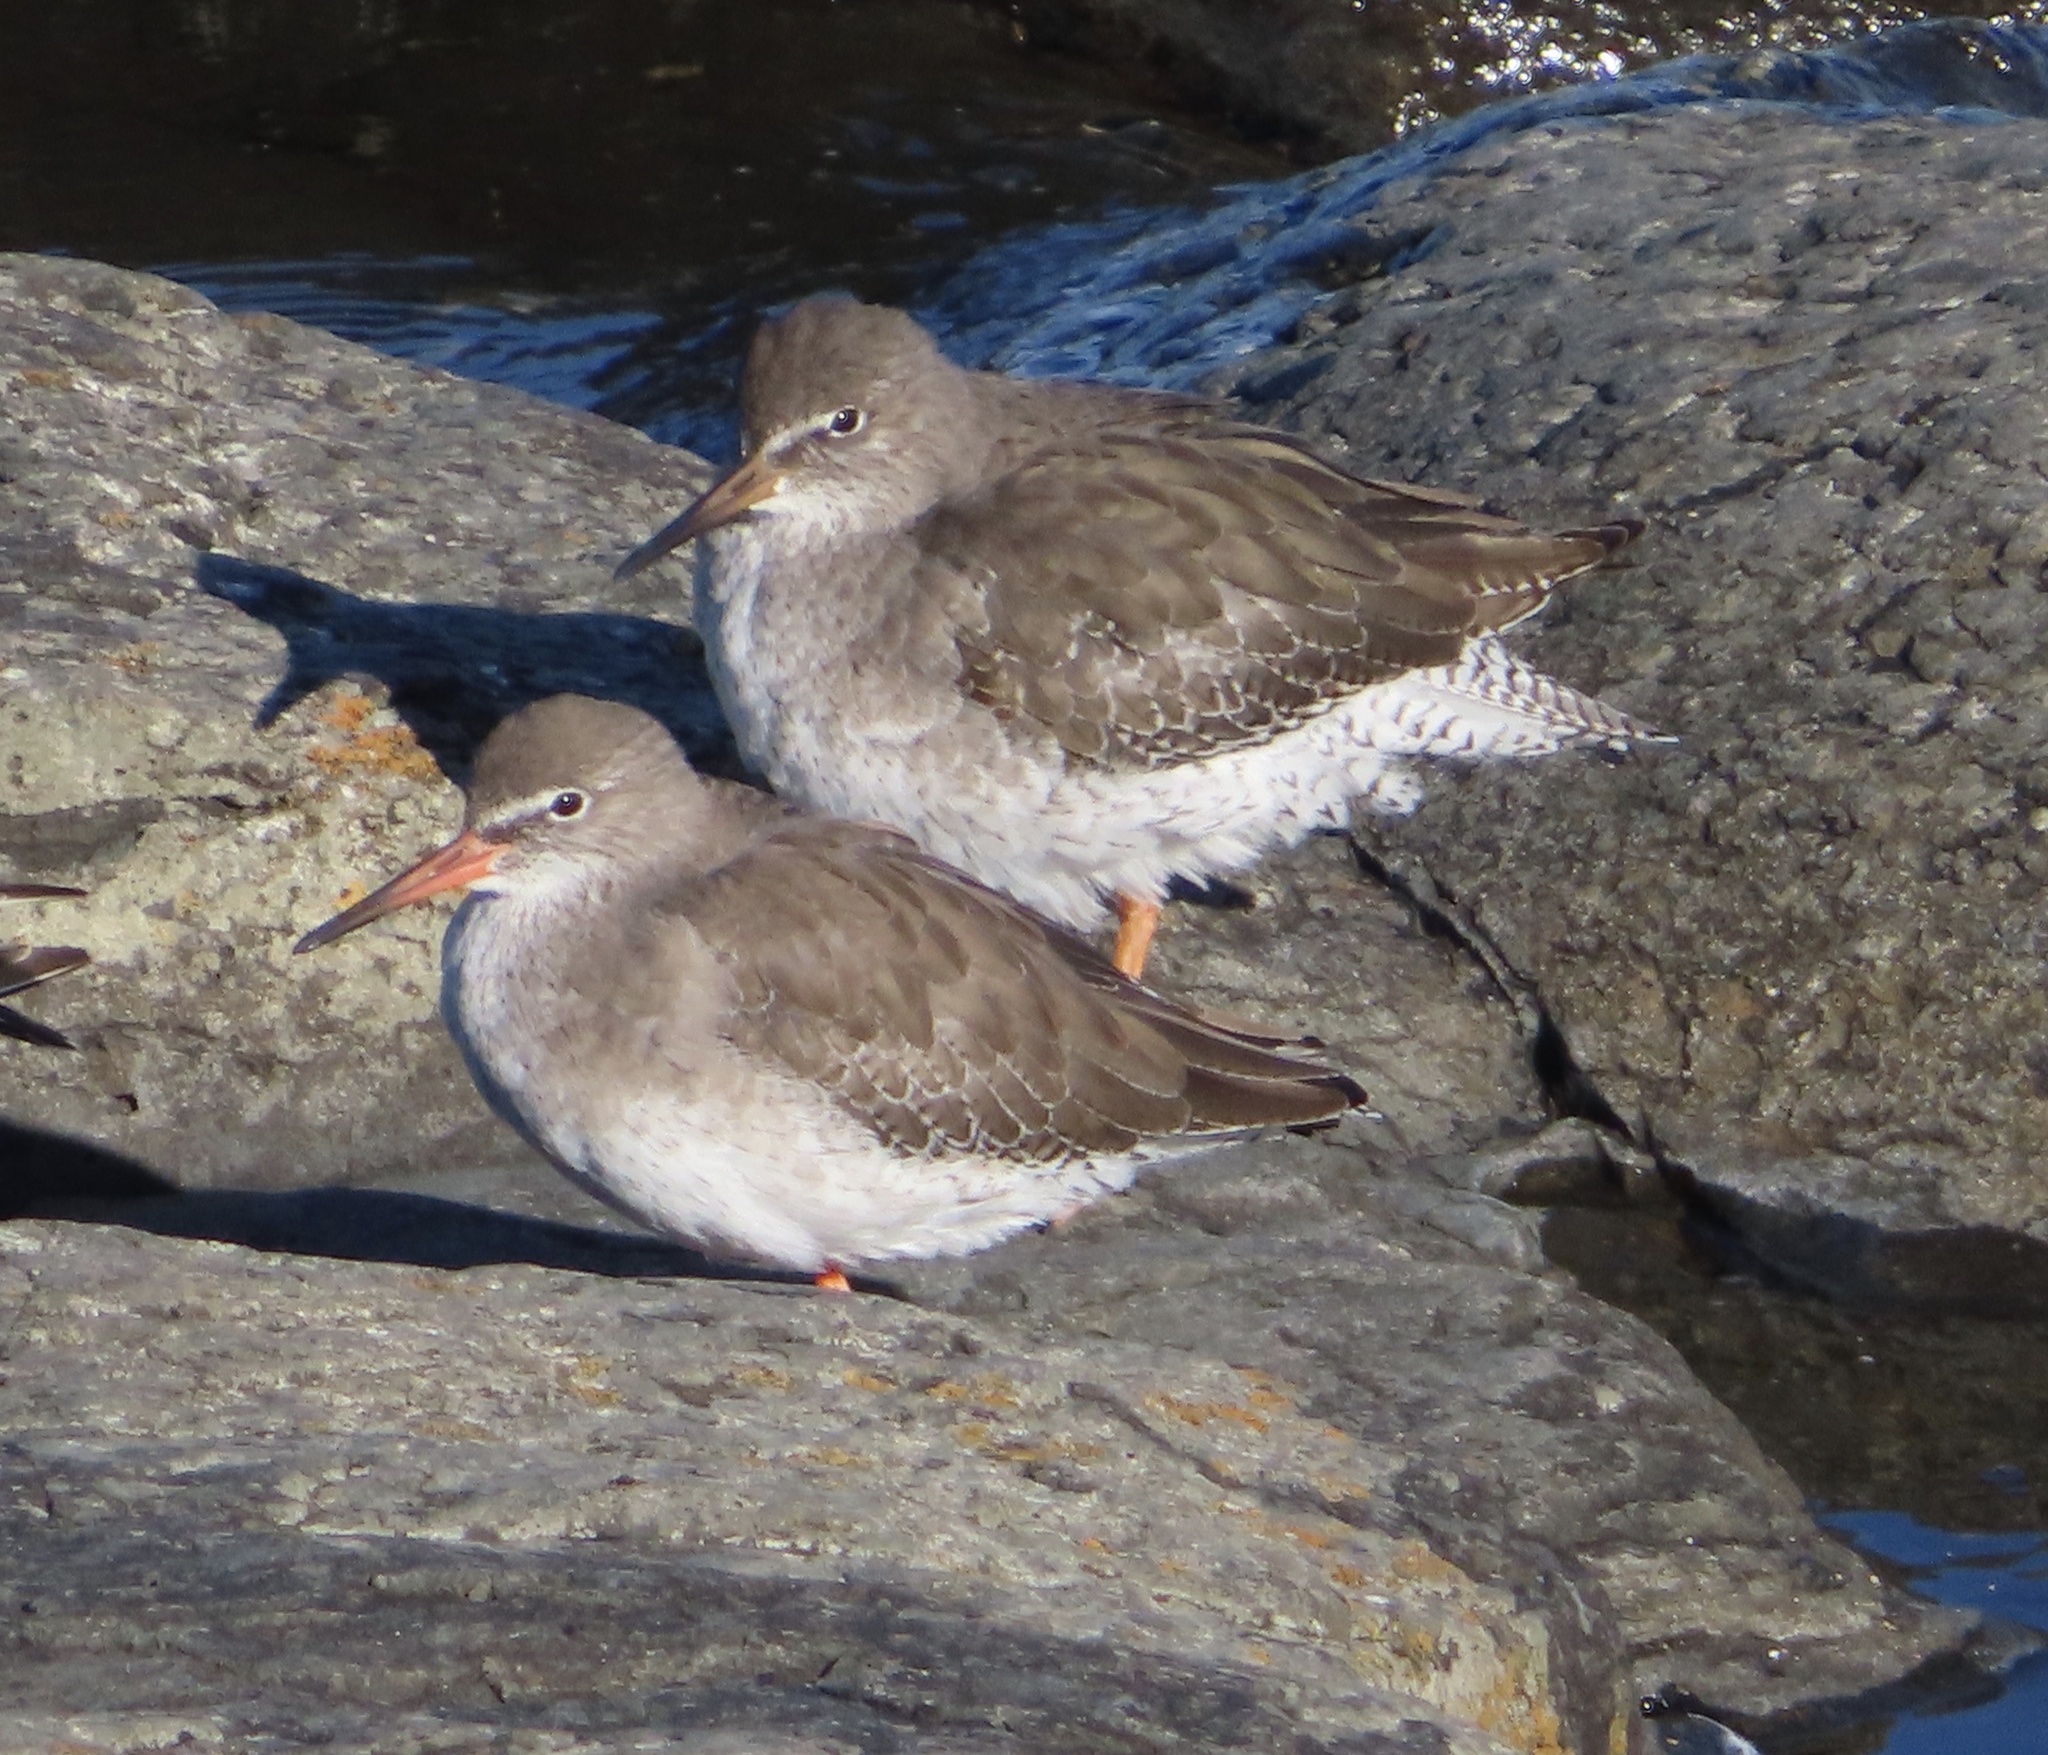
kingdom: Animalia
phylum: Chordata
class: Aves
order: Charadriiformes
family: Scolopacidae
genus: Tringa
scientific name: Tringa totanus
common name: Common redshank
